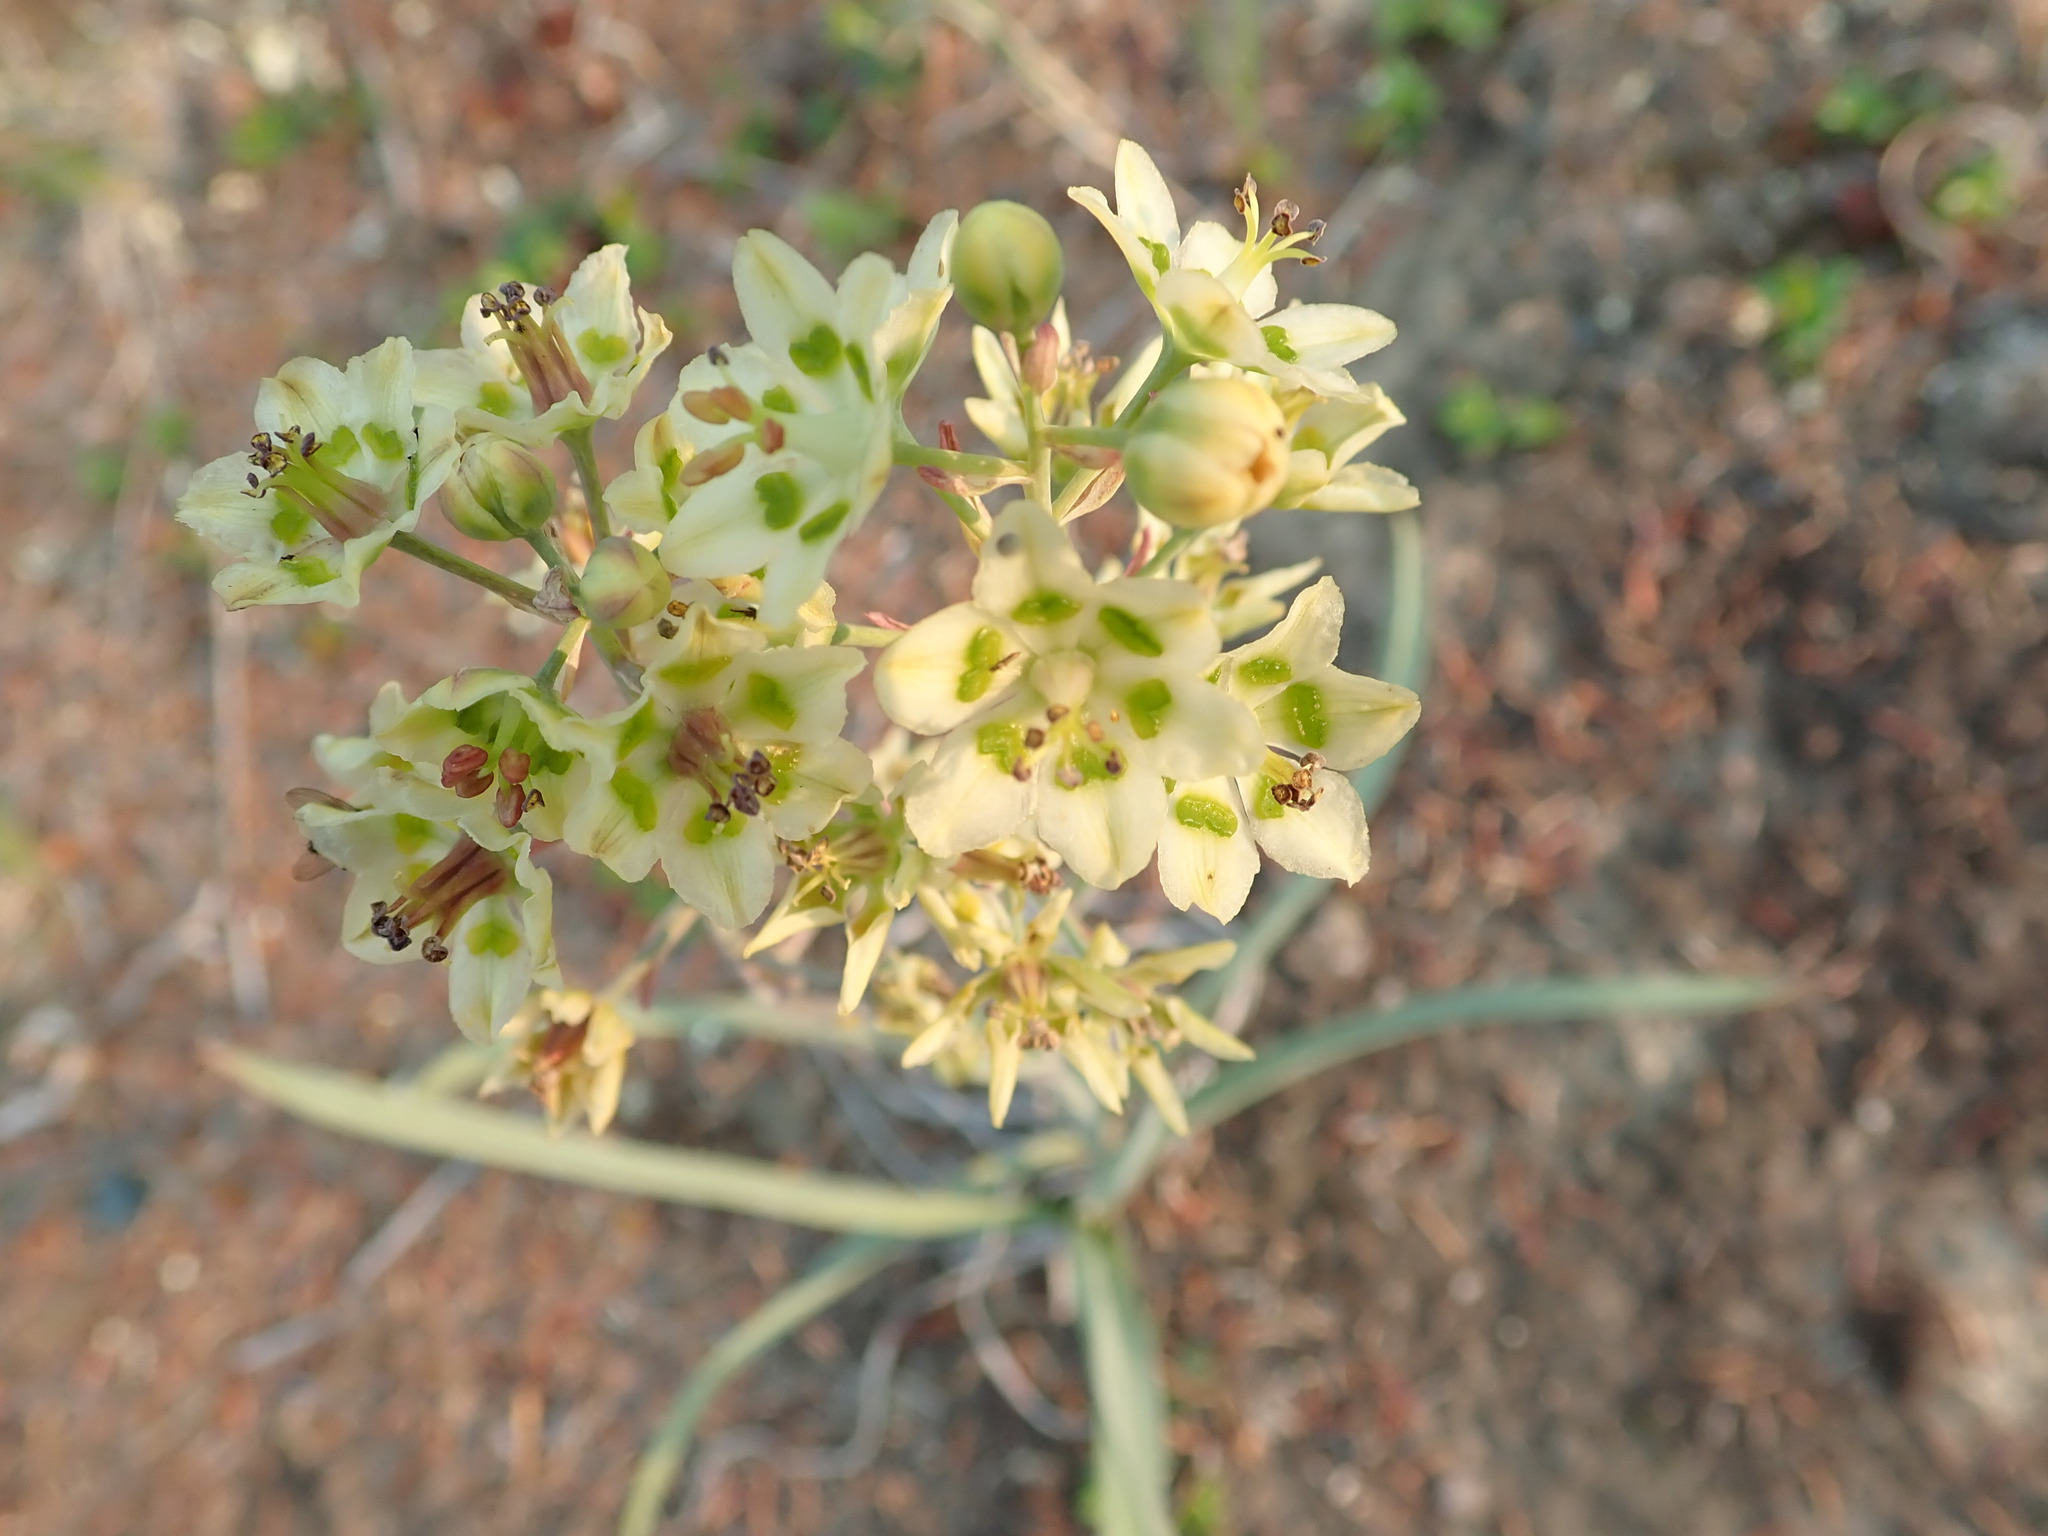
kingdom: Plantae
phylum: Tracheophyta
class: Liliopsida
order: Liliales
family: Melanthiaceae
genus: Anticlea
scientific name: Anticlea elegans
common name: Mountain death camas
